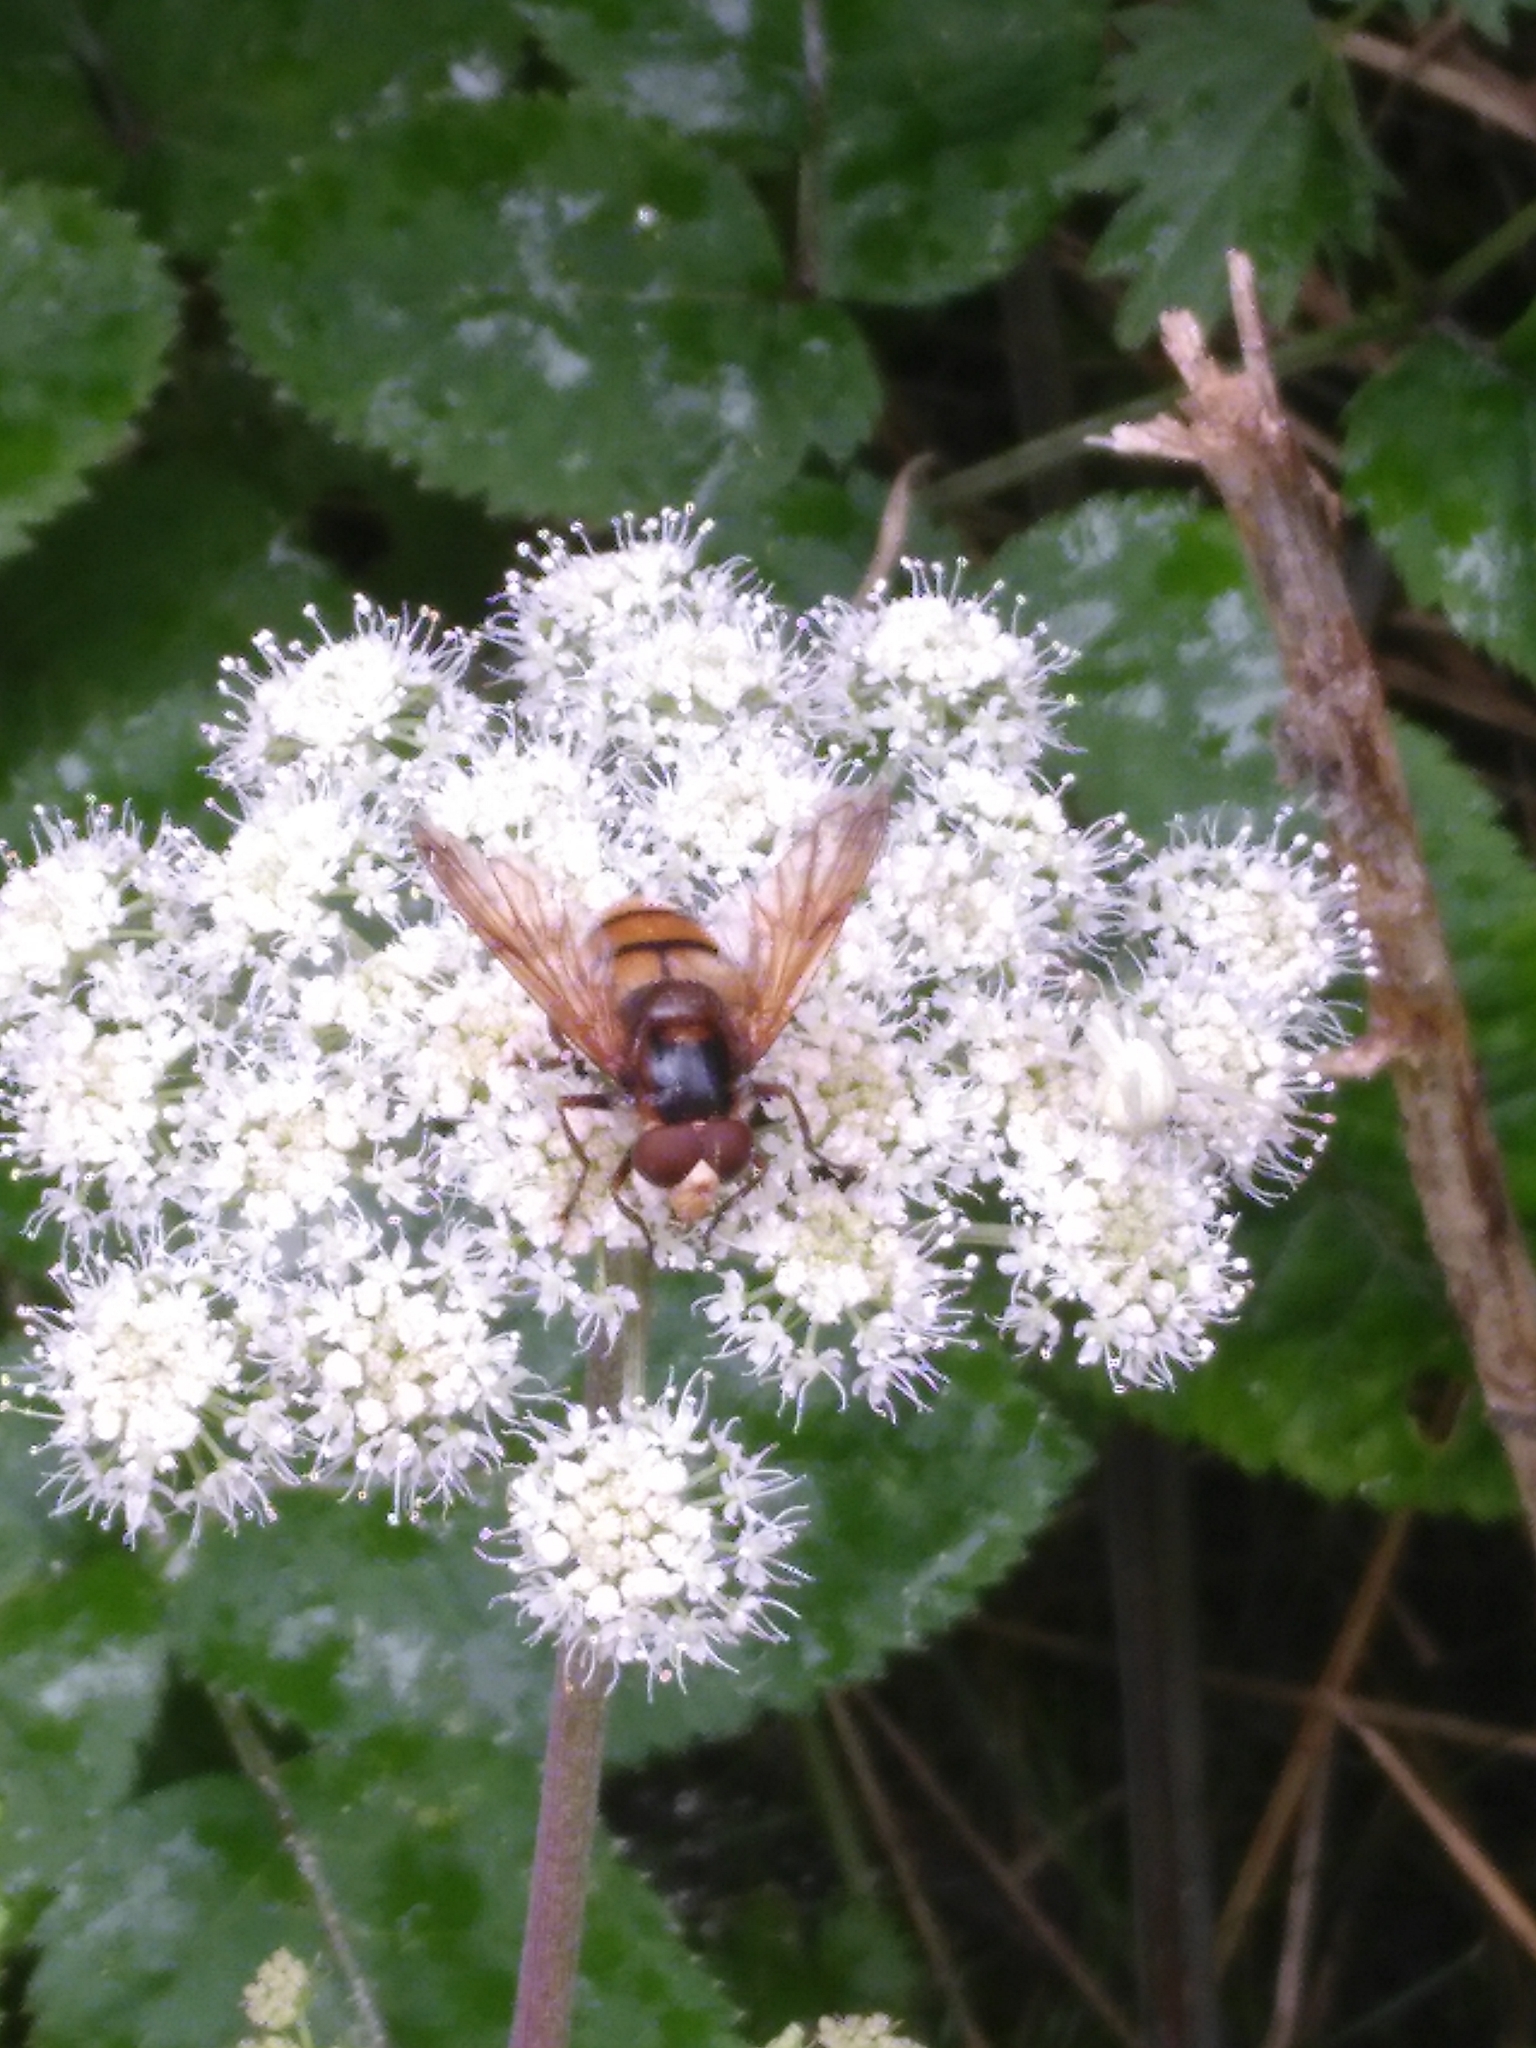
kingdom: Animalia
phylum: Arthropoda
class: Insecta
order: Diptera
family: Syrphidae
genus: Volucella
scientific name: Volucella inanis
